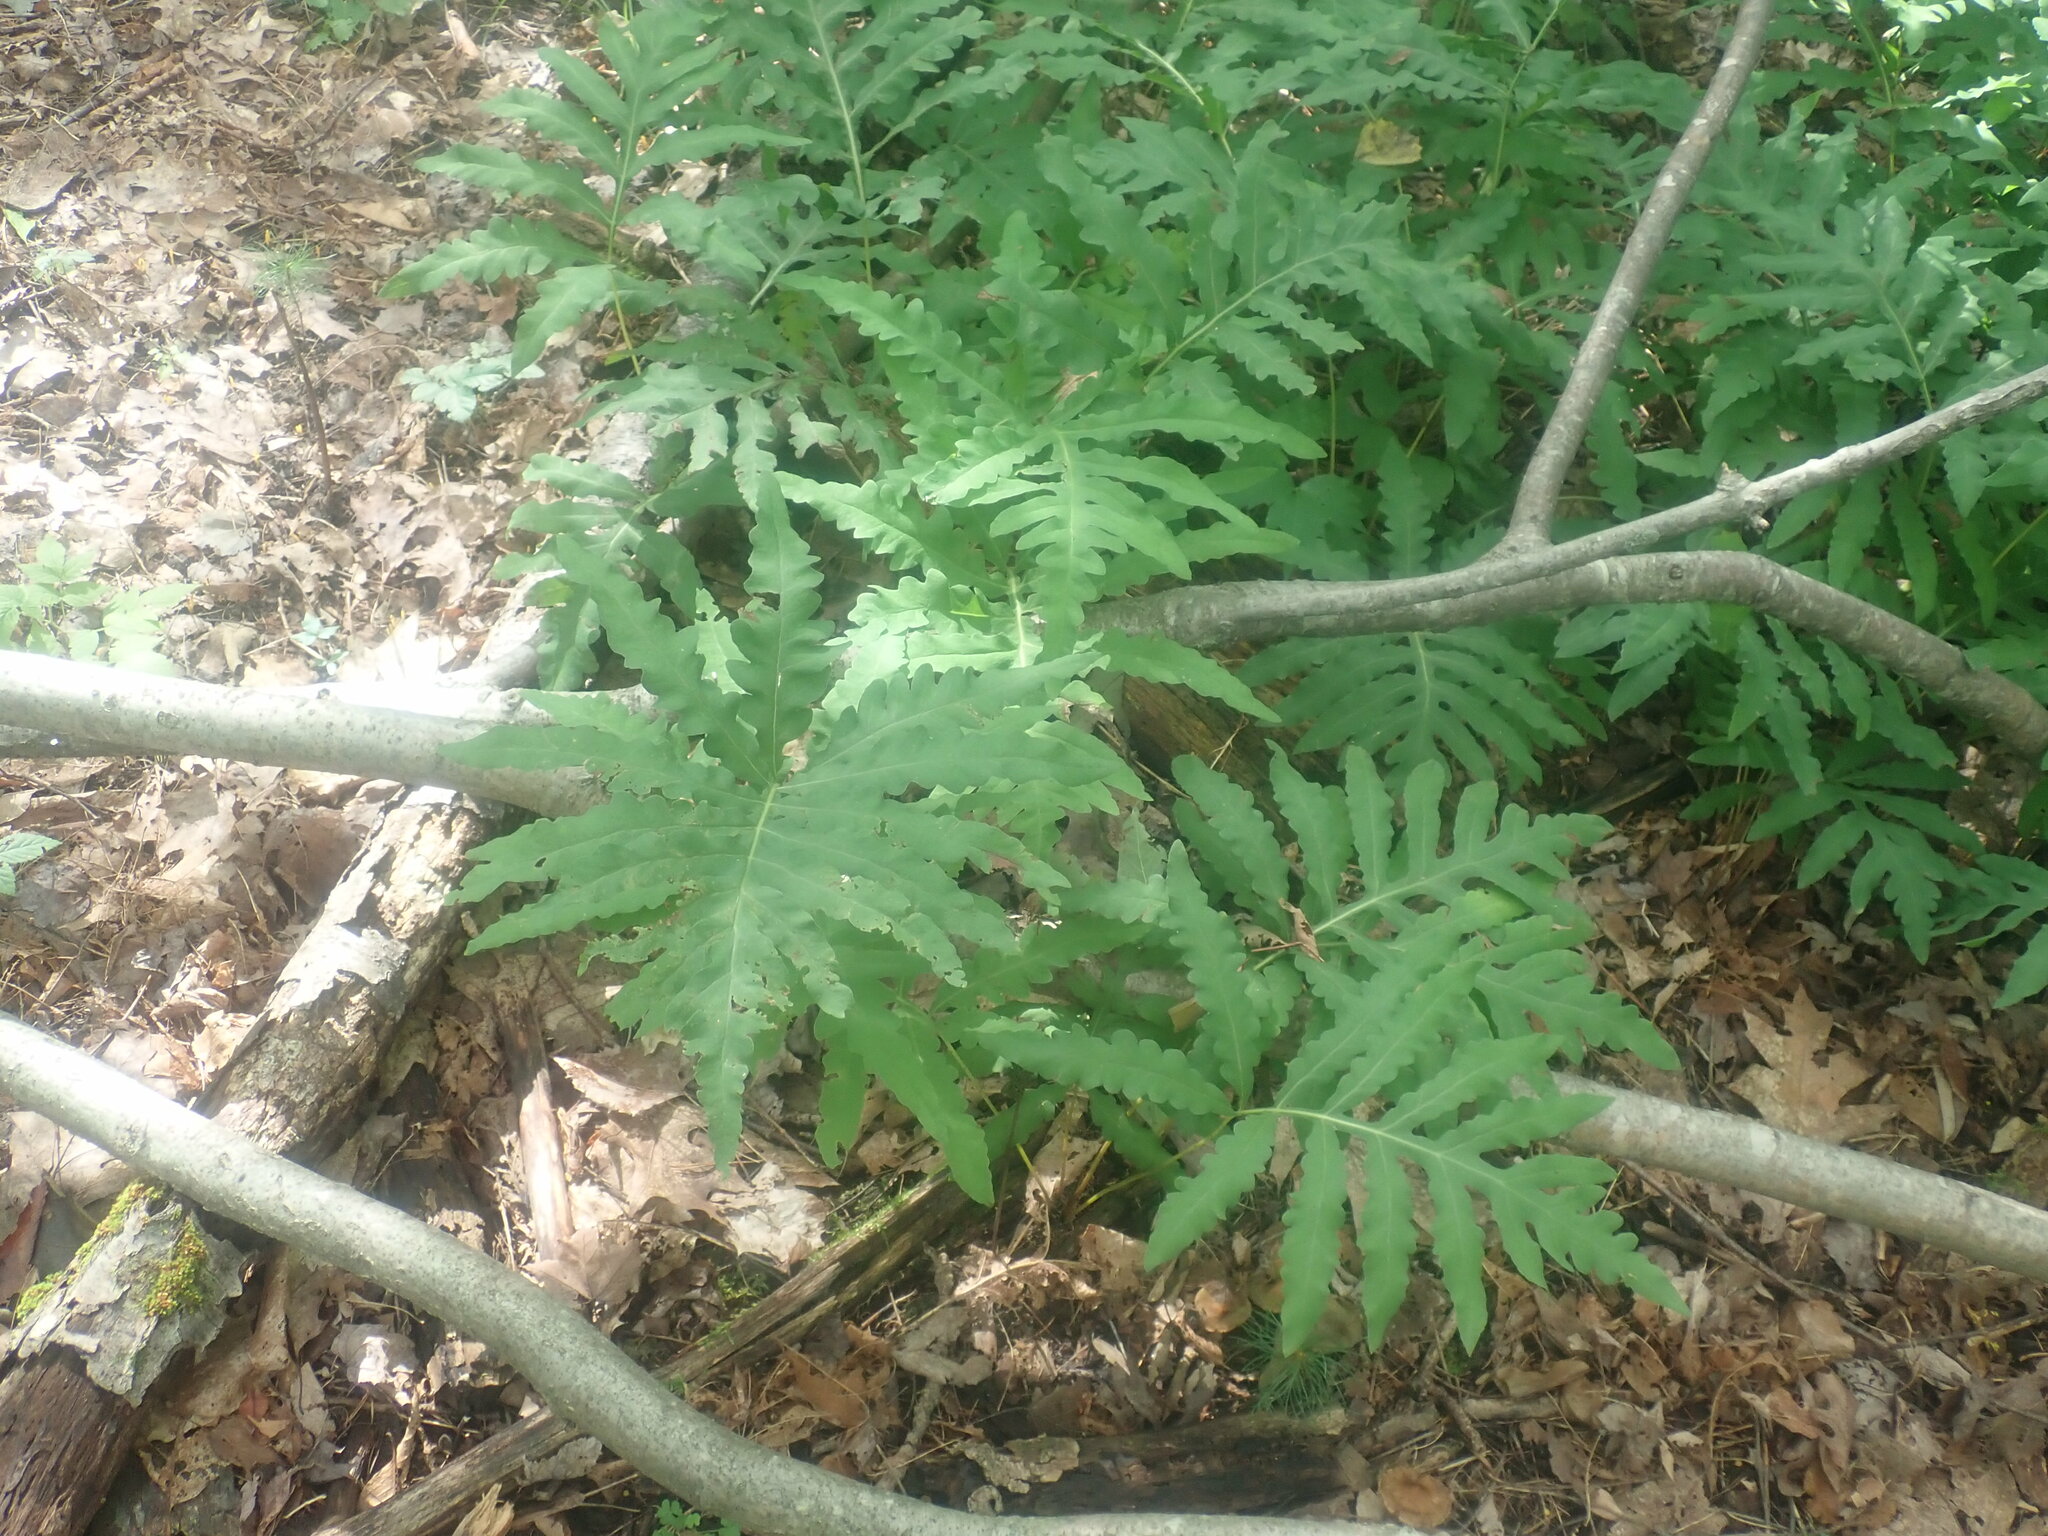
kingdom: Plantae
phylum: Tracheophyta
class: Polypodiopsida
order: Polypodiales
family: Onocleaceae
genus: Onoclea
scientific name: Onoclea sensibilis
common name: Sensitive fern
